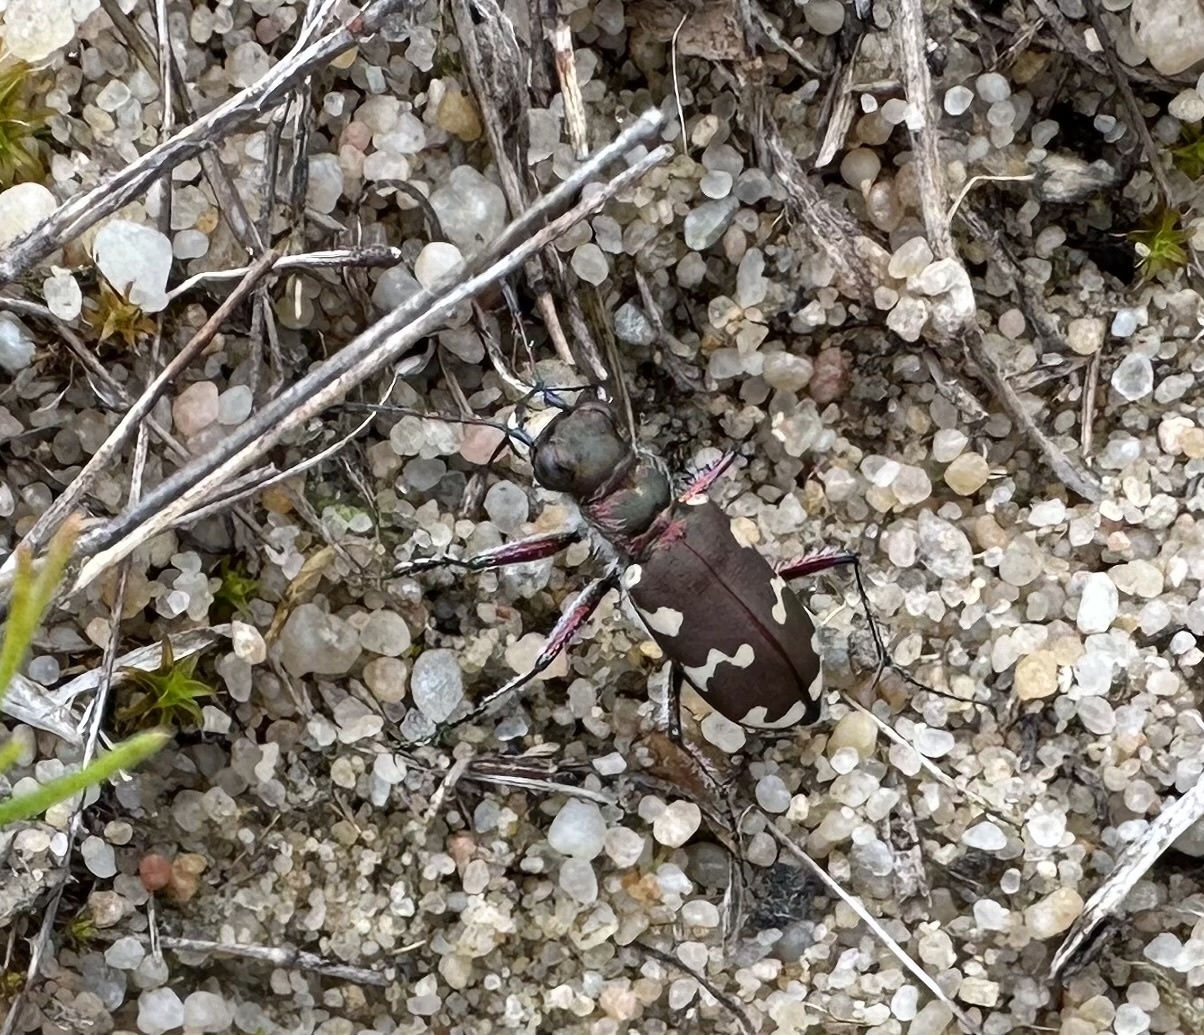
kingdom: Animalia
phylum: Arthropoda
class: Insecta
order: Coleoptera
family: Carabidae
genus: Cicindela
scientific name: Cicindela hybrida
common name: Northern dune tiger beetle
